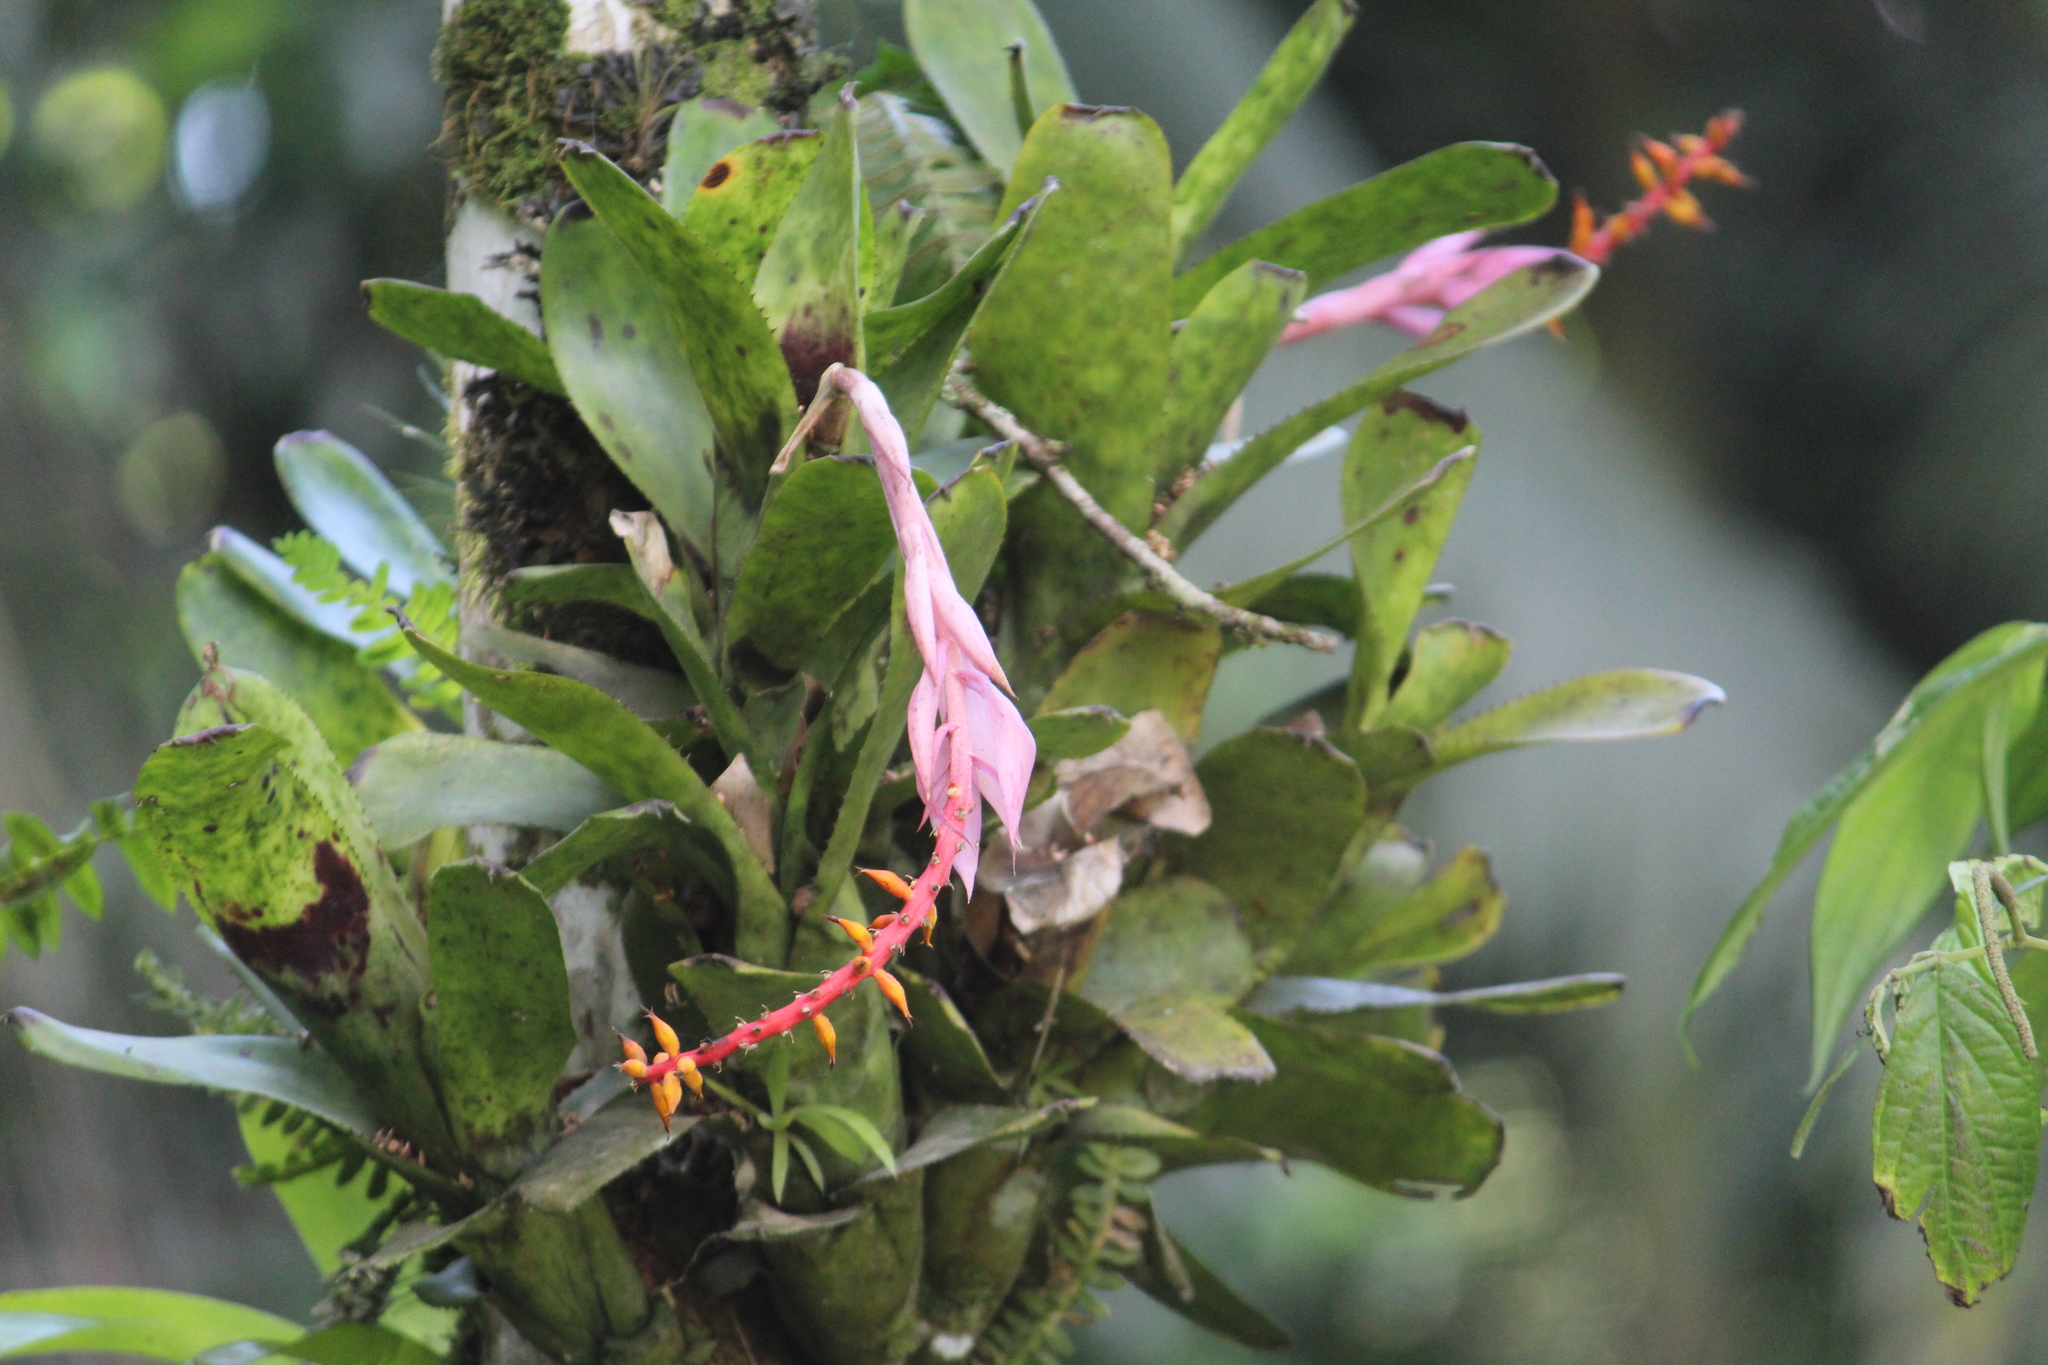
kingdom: Plantae
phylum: Tracheophyta
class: Liliopsida
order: Poales
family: Bromeliaceae
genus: Aechmea
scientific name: Aechmea nudicaulis
